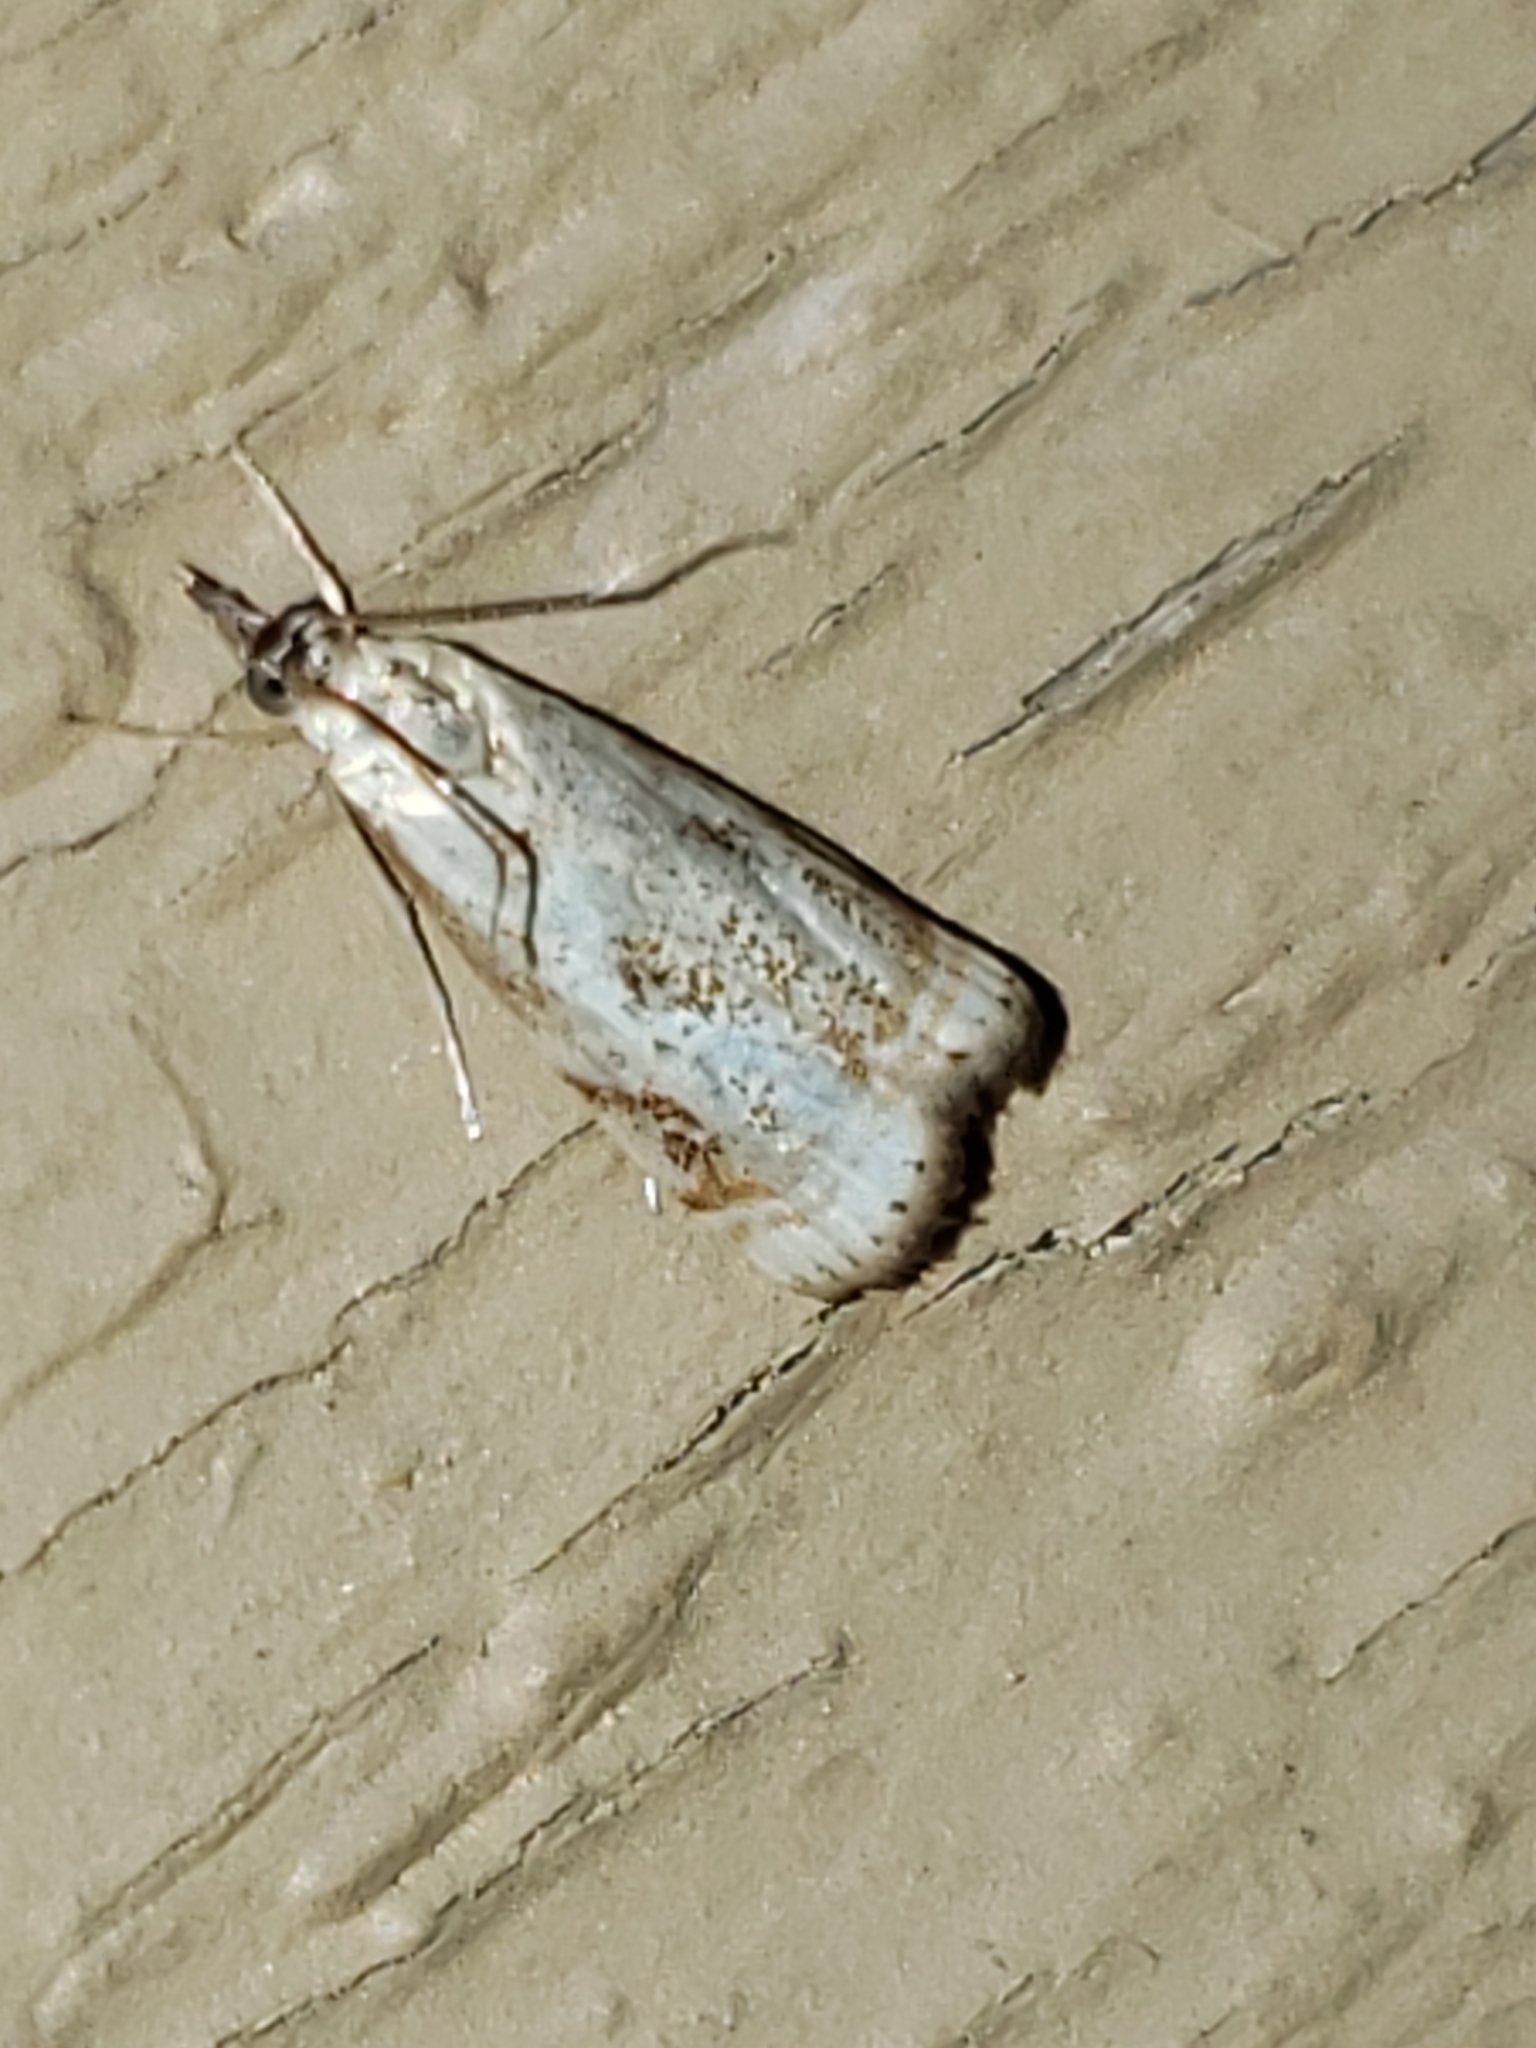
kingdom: Animalia
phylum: Arthropoda
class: Insecta
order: Lepidoptera
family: Crambidae
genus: Microcrambus
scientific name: Microcrambus elegans
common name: Elegant grass-veneer
